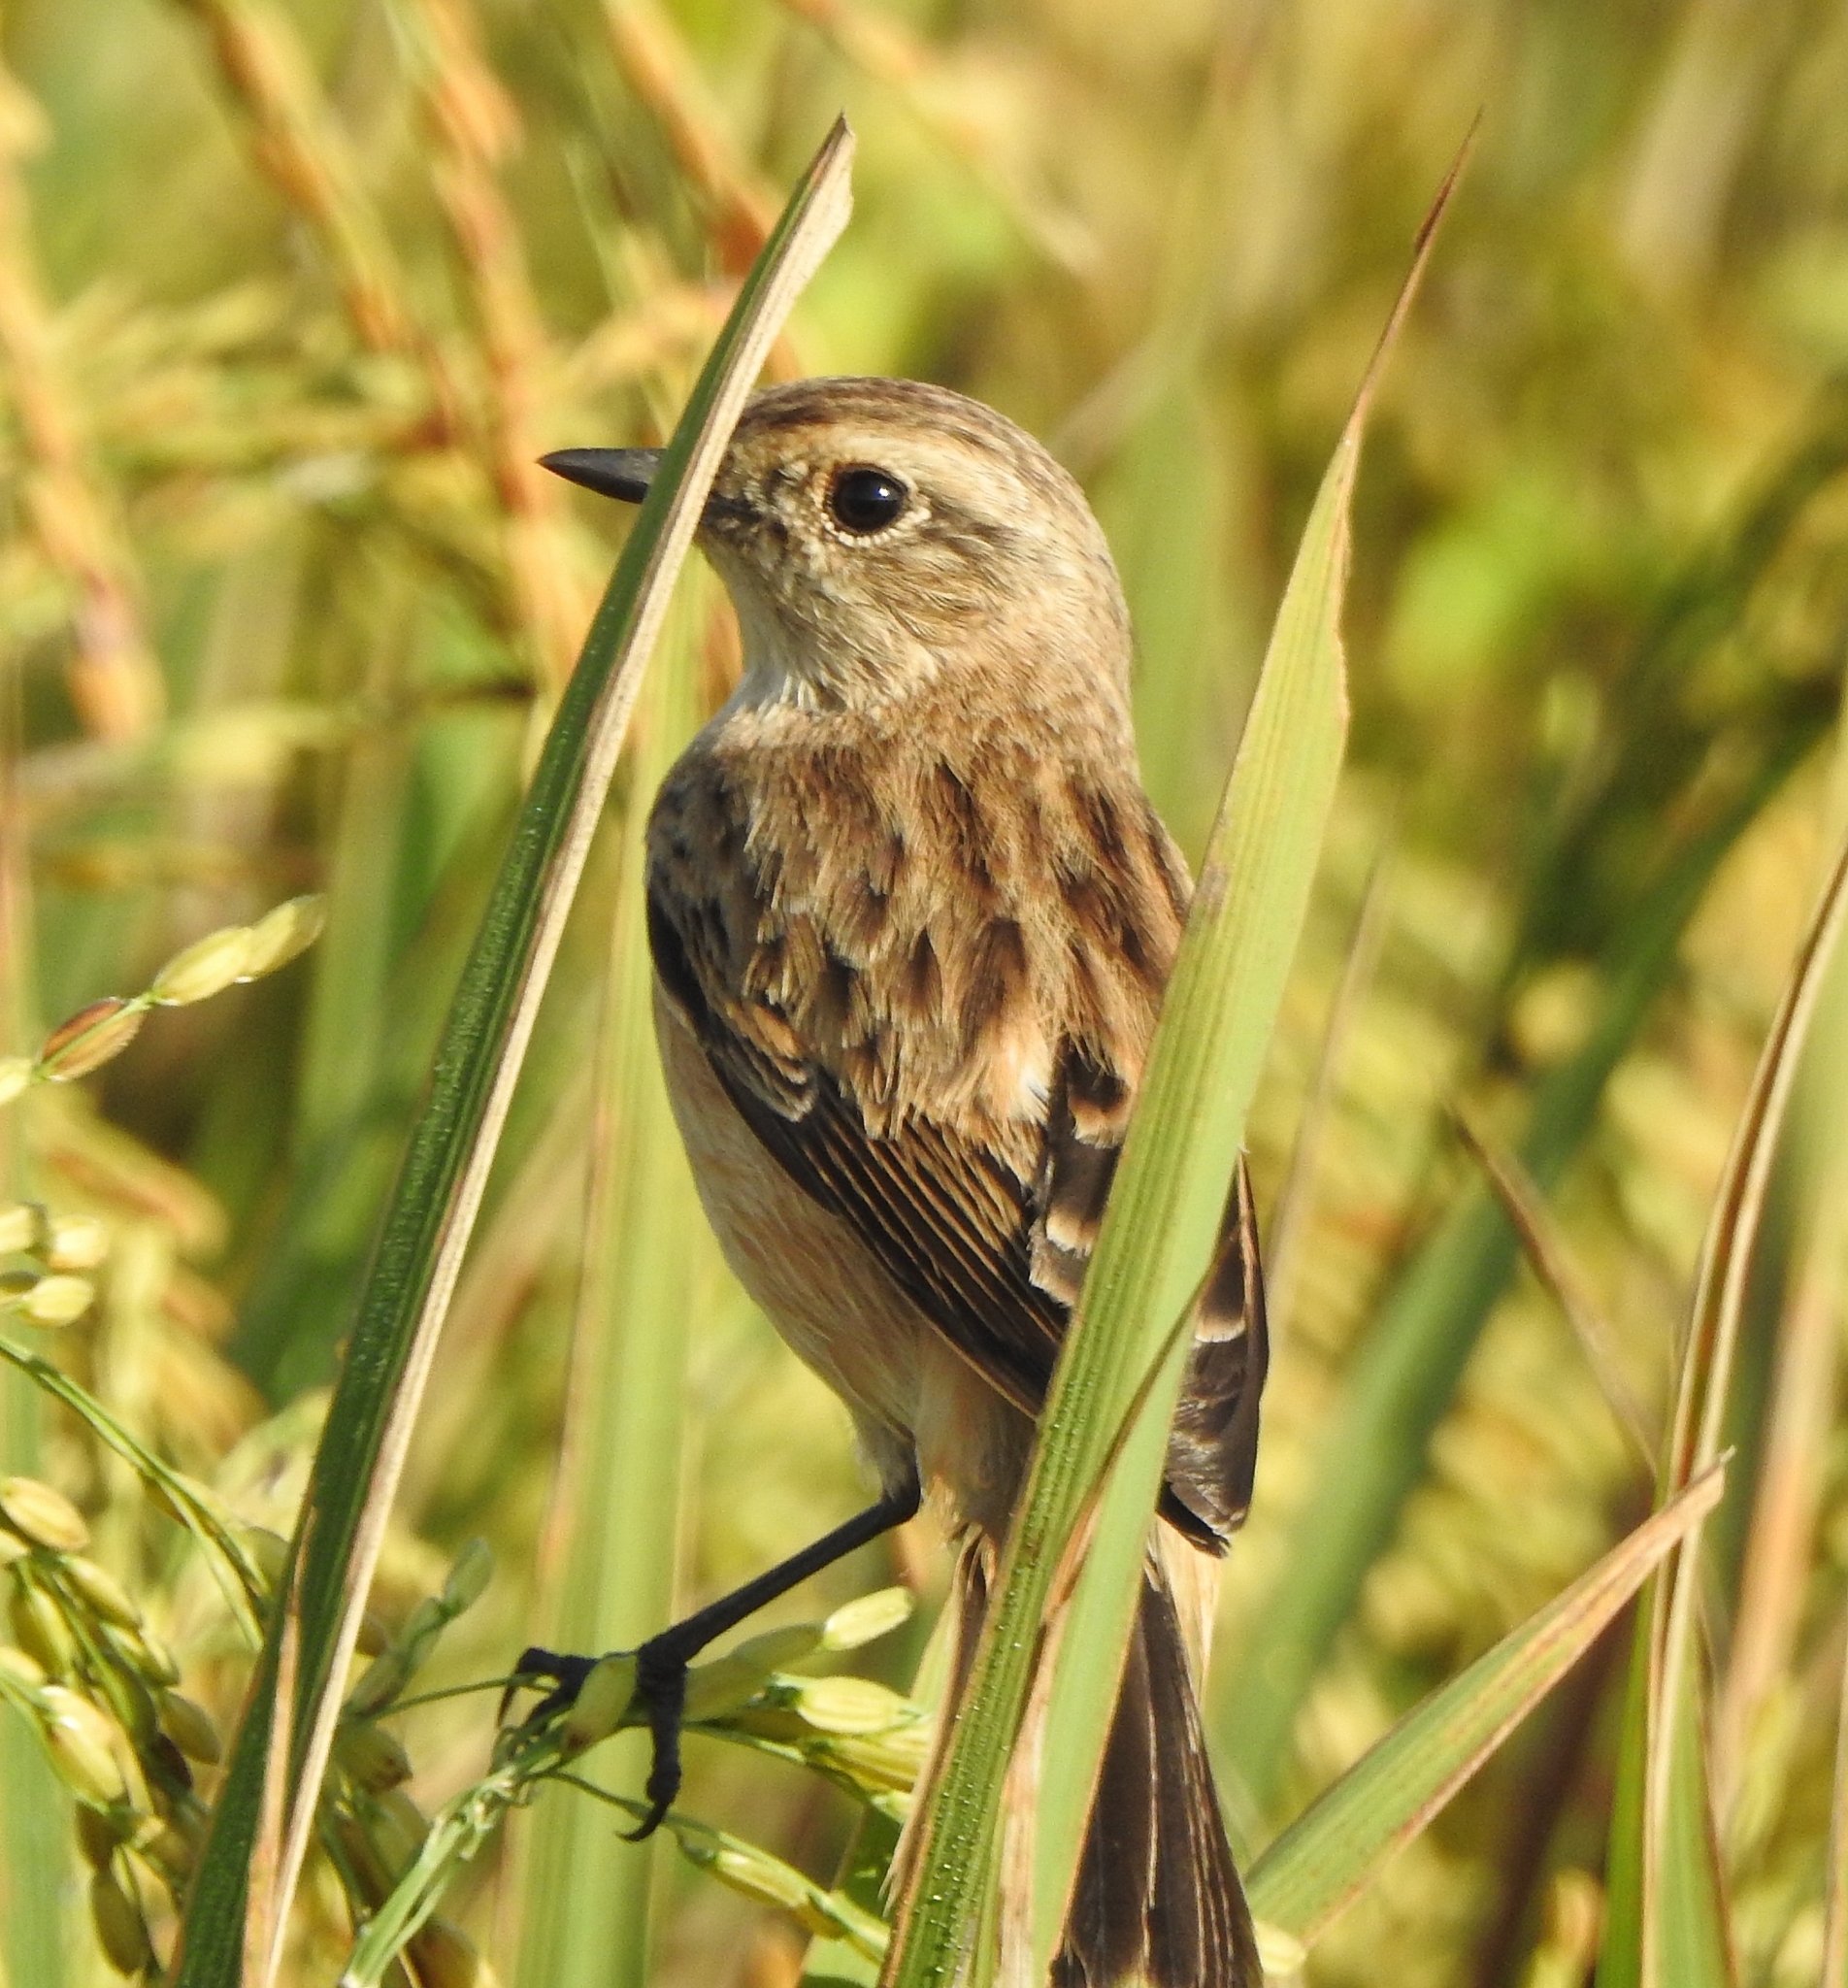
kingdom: Animalia
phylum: Chordata
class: Aves
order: Passeriformes
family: Muscicapidae
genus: Saxicola
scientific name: Saxicola maurus
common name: Siberian stonechat
